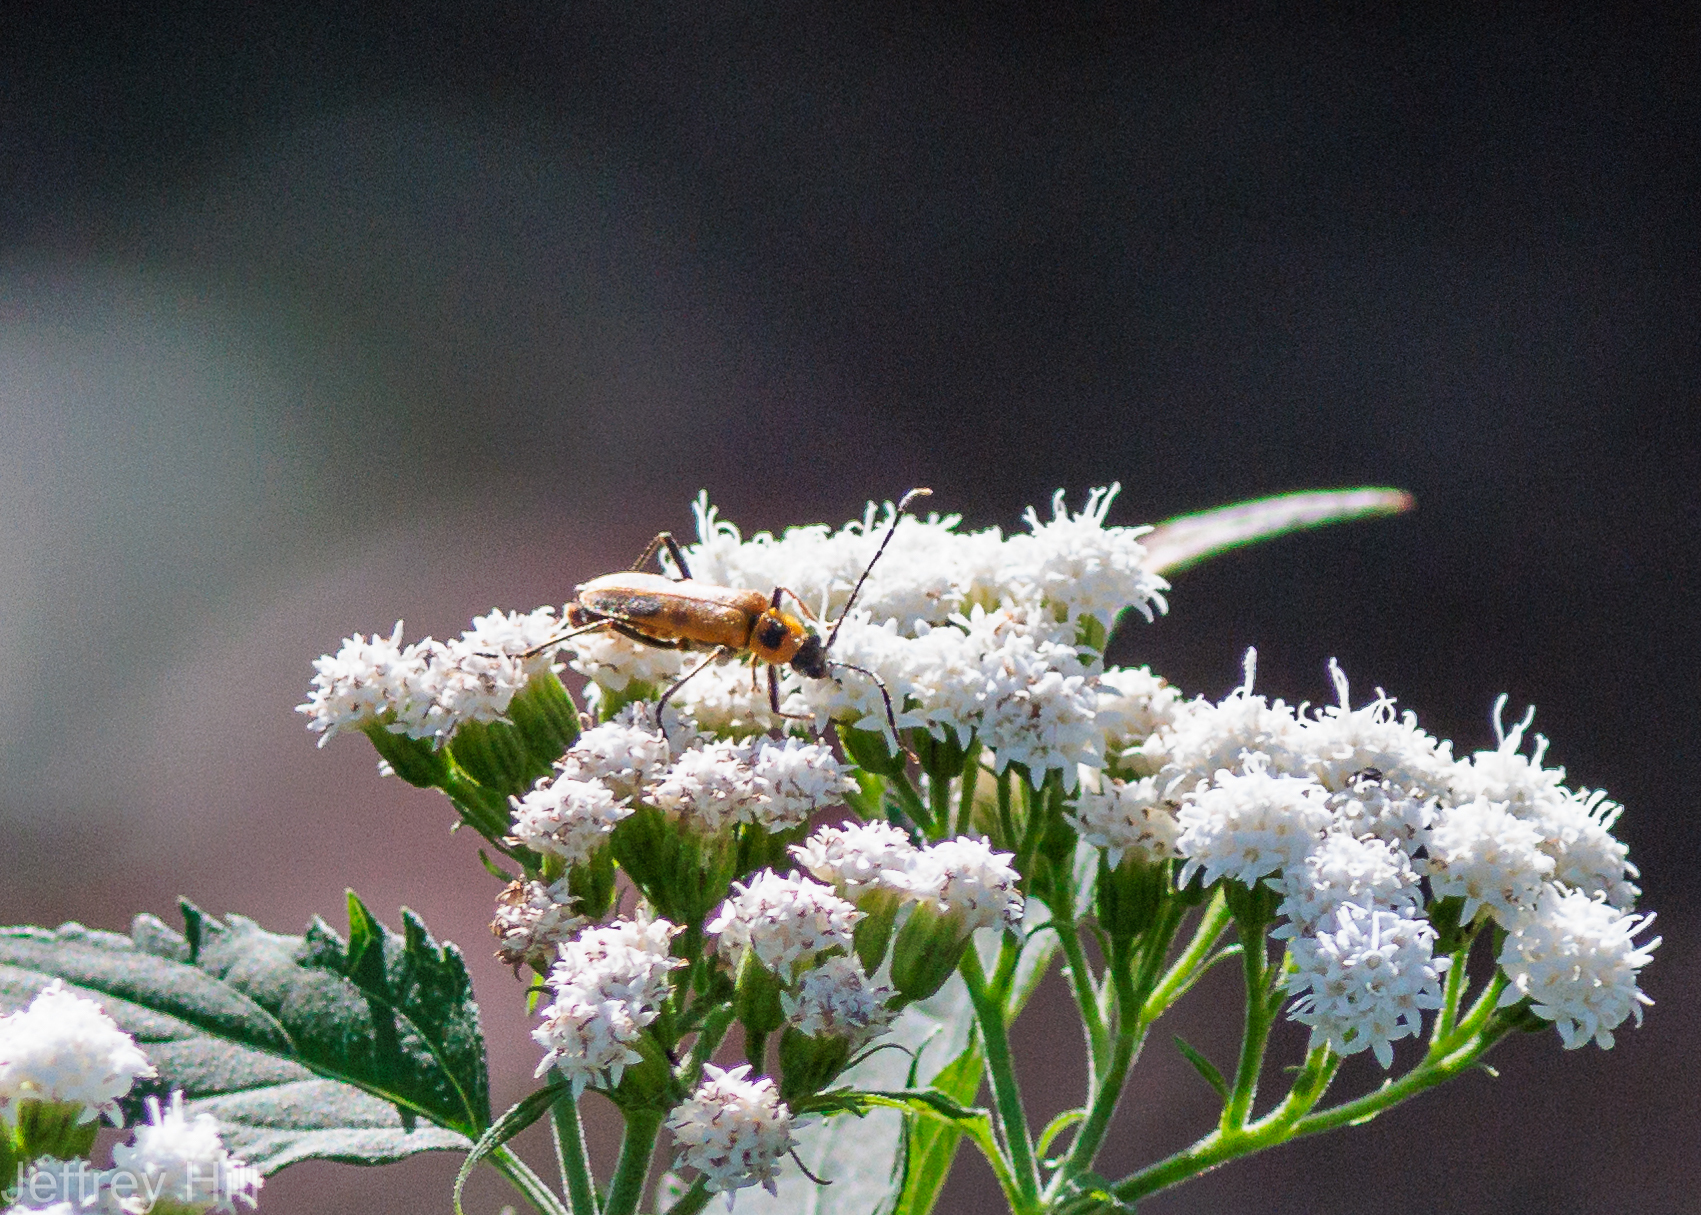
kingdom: Animalia
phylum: Arthropoda
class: Insecta
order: Coleoptera
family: Cantharidae
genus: Chauliognathus
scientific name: Chauliognathus pensylvanicus
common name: Goldenrod soldier beetle
